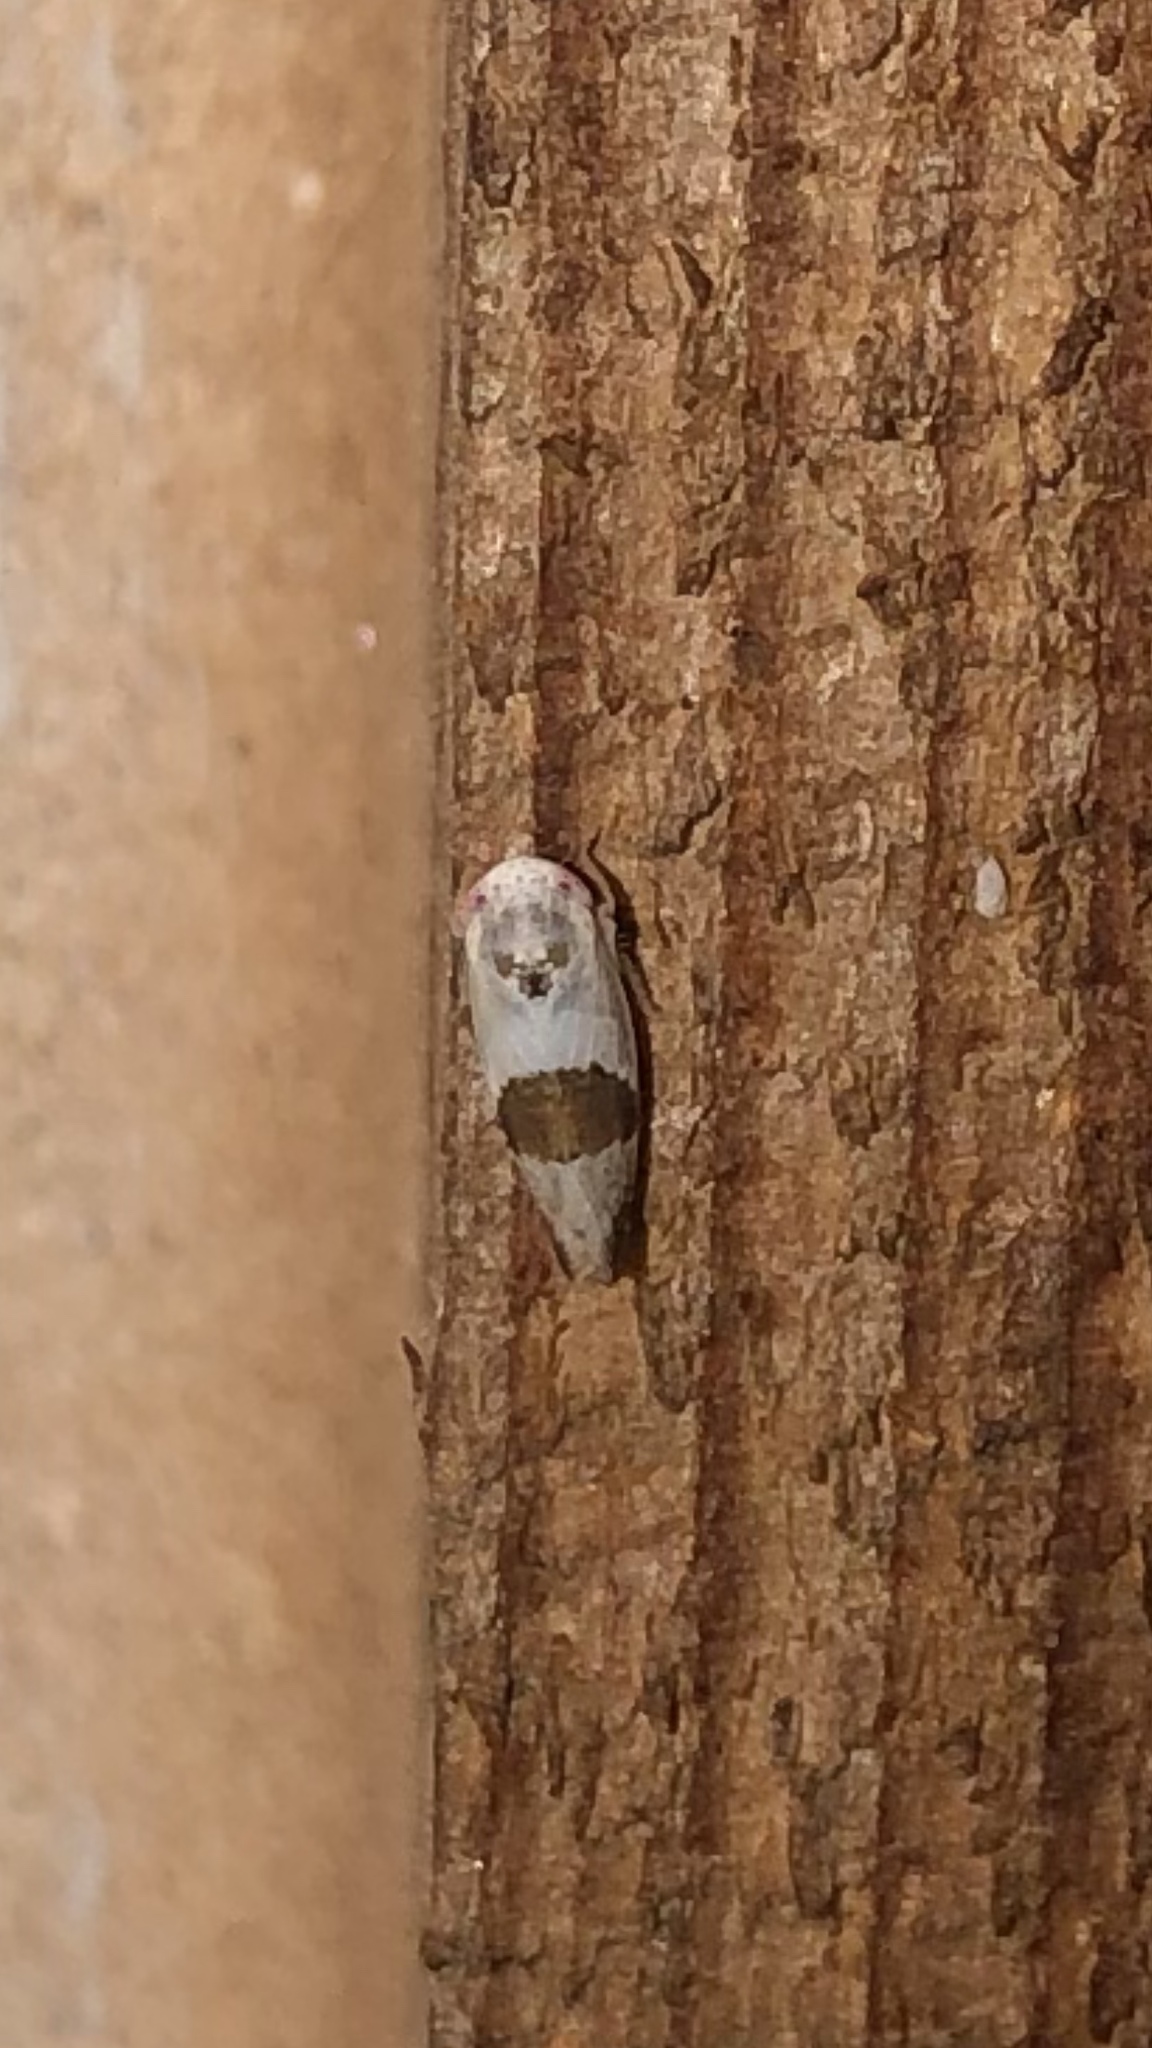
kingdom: Animalia
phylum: Arthropoda
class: Insecta
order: Hemiptera
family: Cicadellidae
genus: Norvellina
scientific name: Norvellina seminuda
